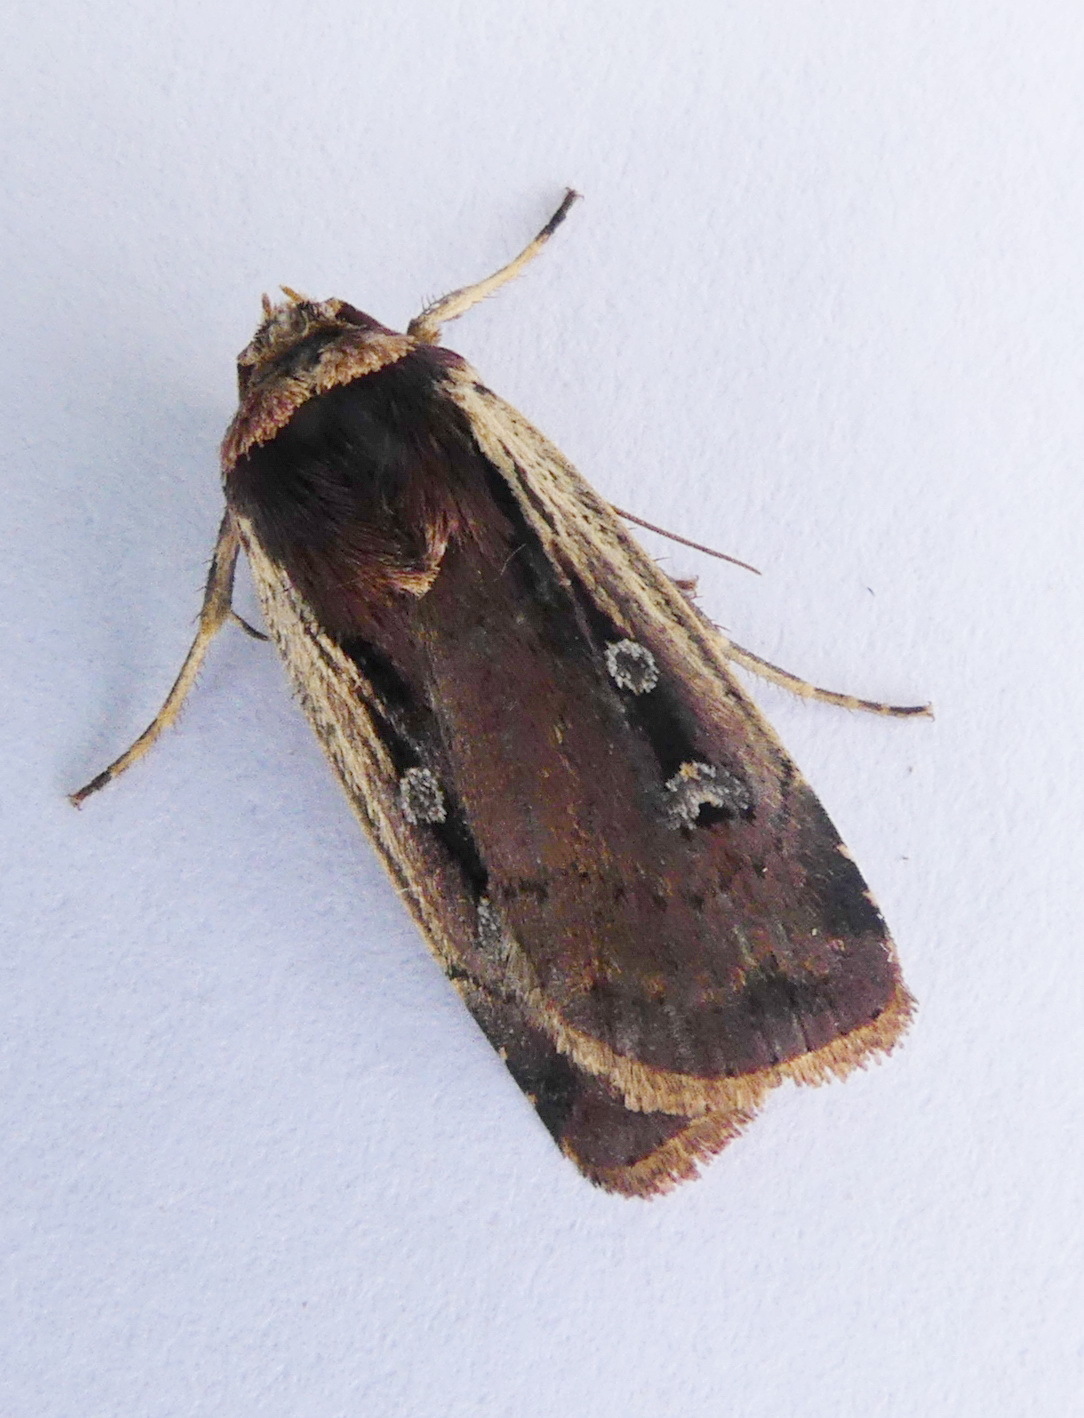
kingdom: Animalia
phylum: Arthropoda
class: Insecta
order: Lepidoptera
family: Noctuidae
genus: Striacosta
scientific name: Striacosta albicosta
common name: Western bean cutworm moth
